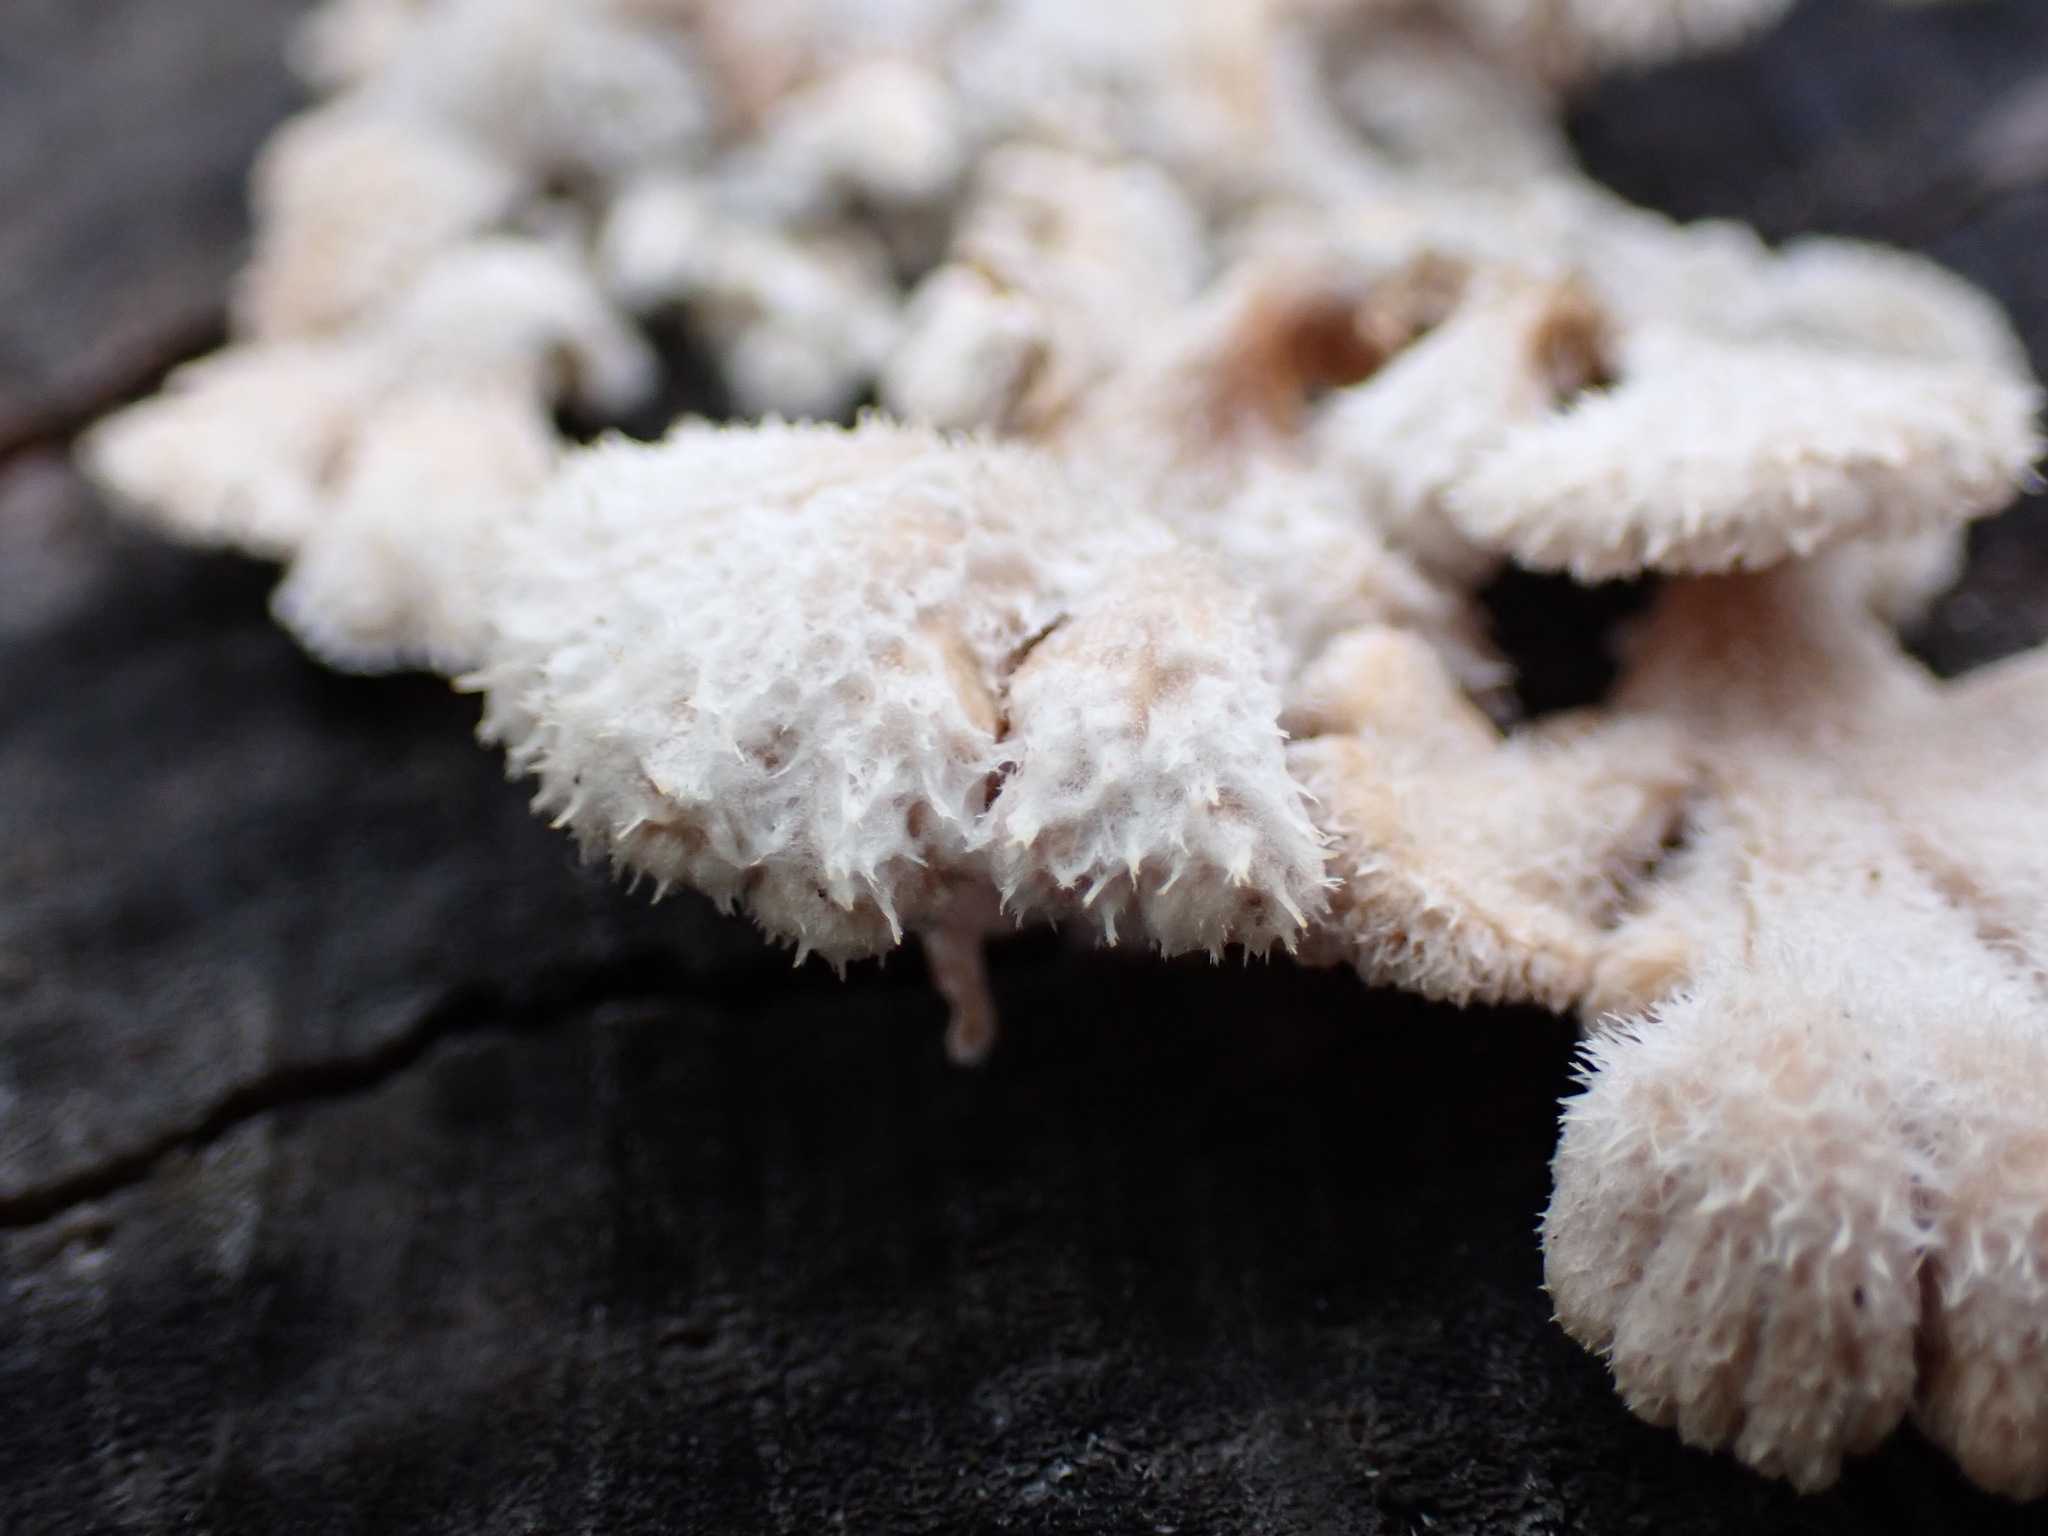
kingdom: Fungi
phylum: Basidiomycota
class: Agaricomycetes
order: Agaricales
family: Schizophyllaceae
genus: Schizophyllum
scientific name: Schizophyllum commune
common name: Common porecrust
